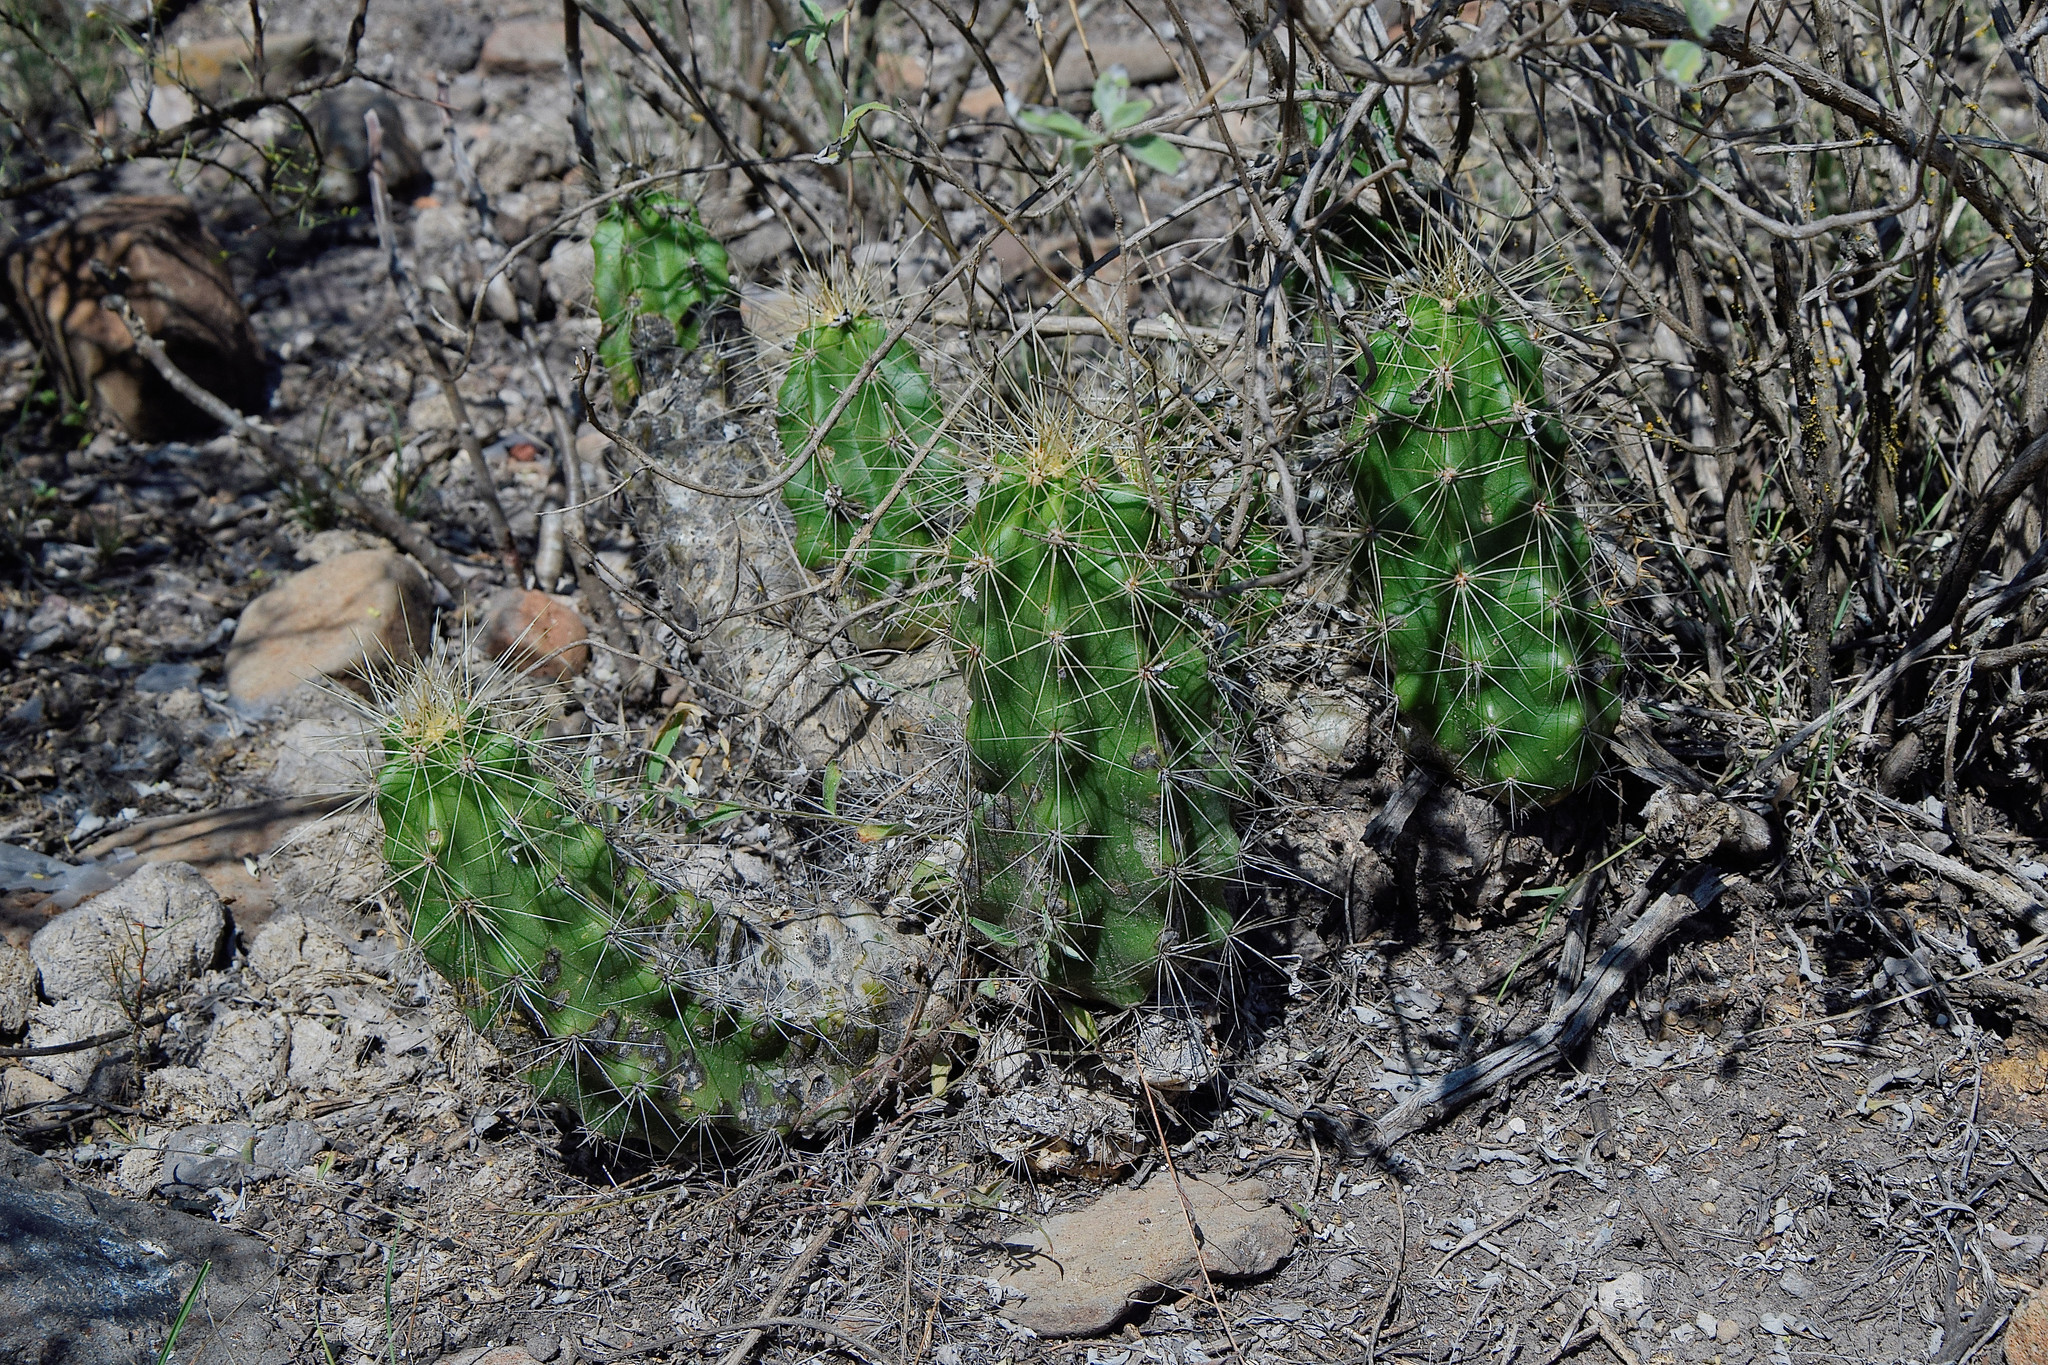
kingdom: Plantae
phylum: Tracheophyta
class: Magnoliopsida
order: Caryophyllales
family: Cactaceae
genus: Echinocereus
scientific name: Echinocereus cinerascens
